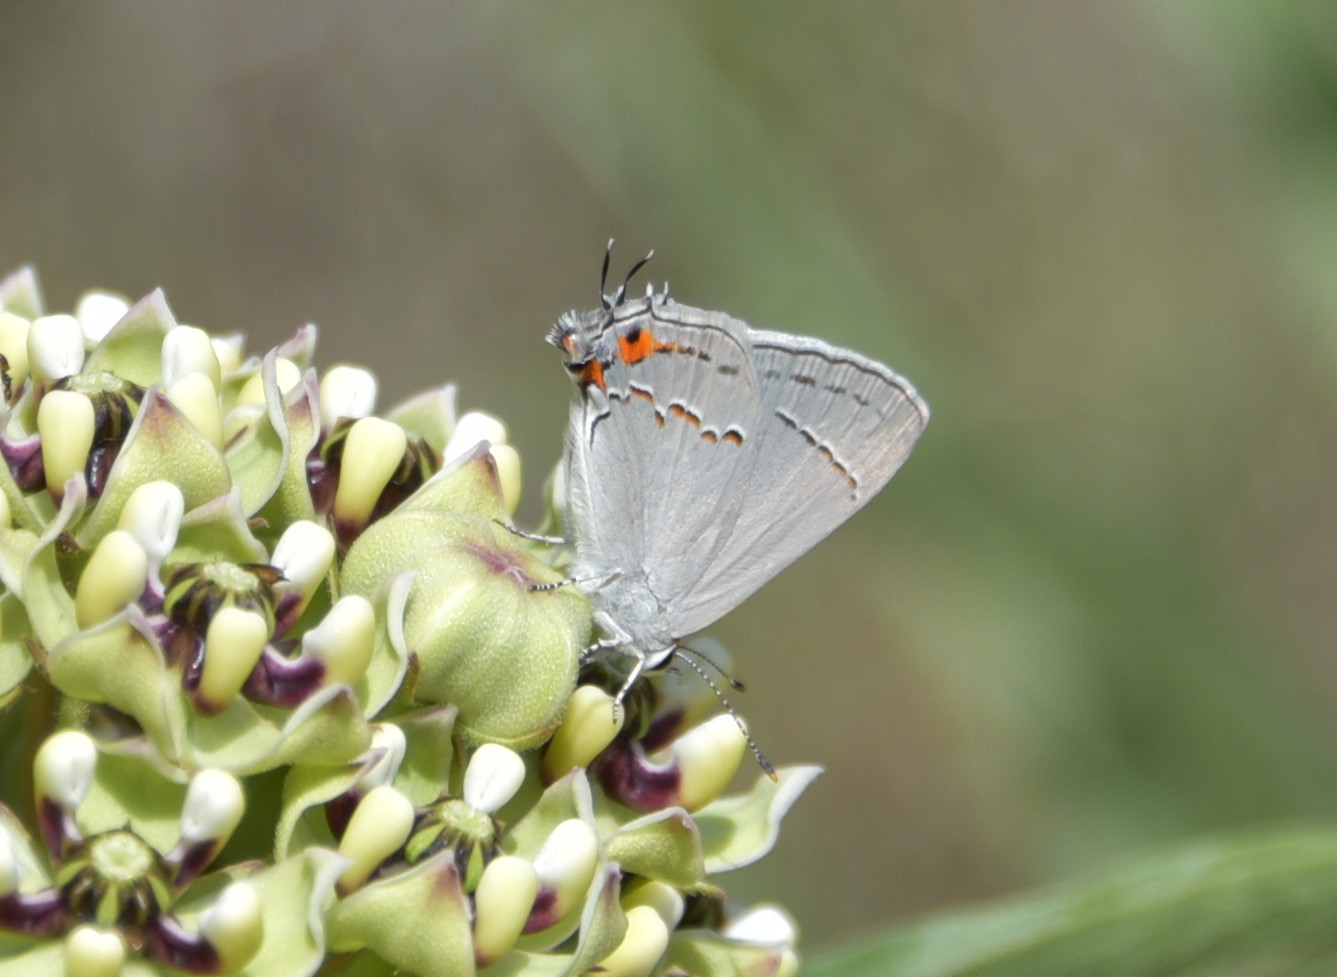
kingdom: Animalia
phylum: Arthropoda
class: Insecta
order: Lepidoptera
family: Lycaenidae
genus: Strymon
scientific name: Strymon melinus
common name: Gray hairstreak
